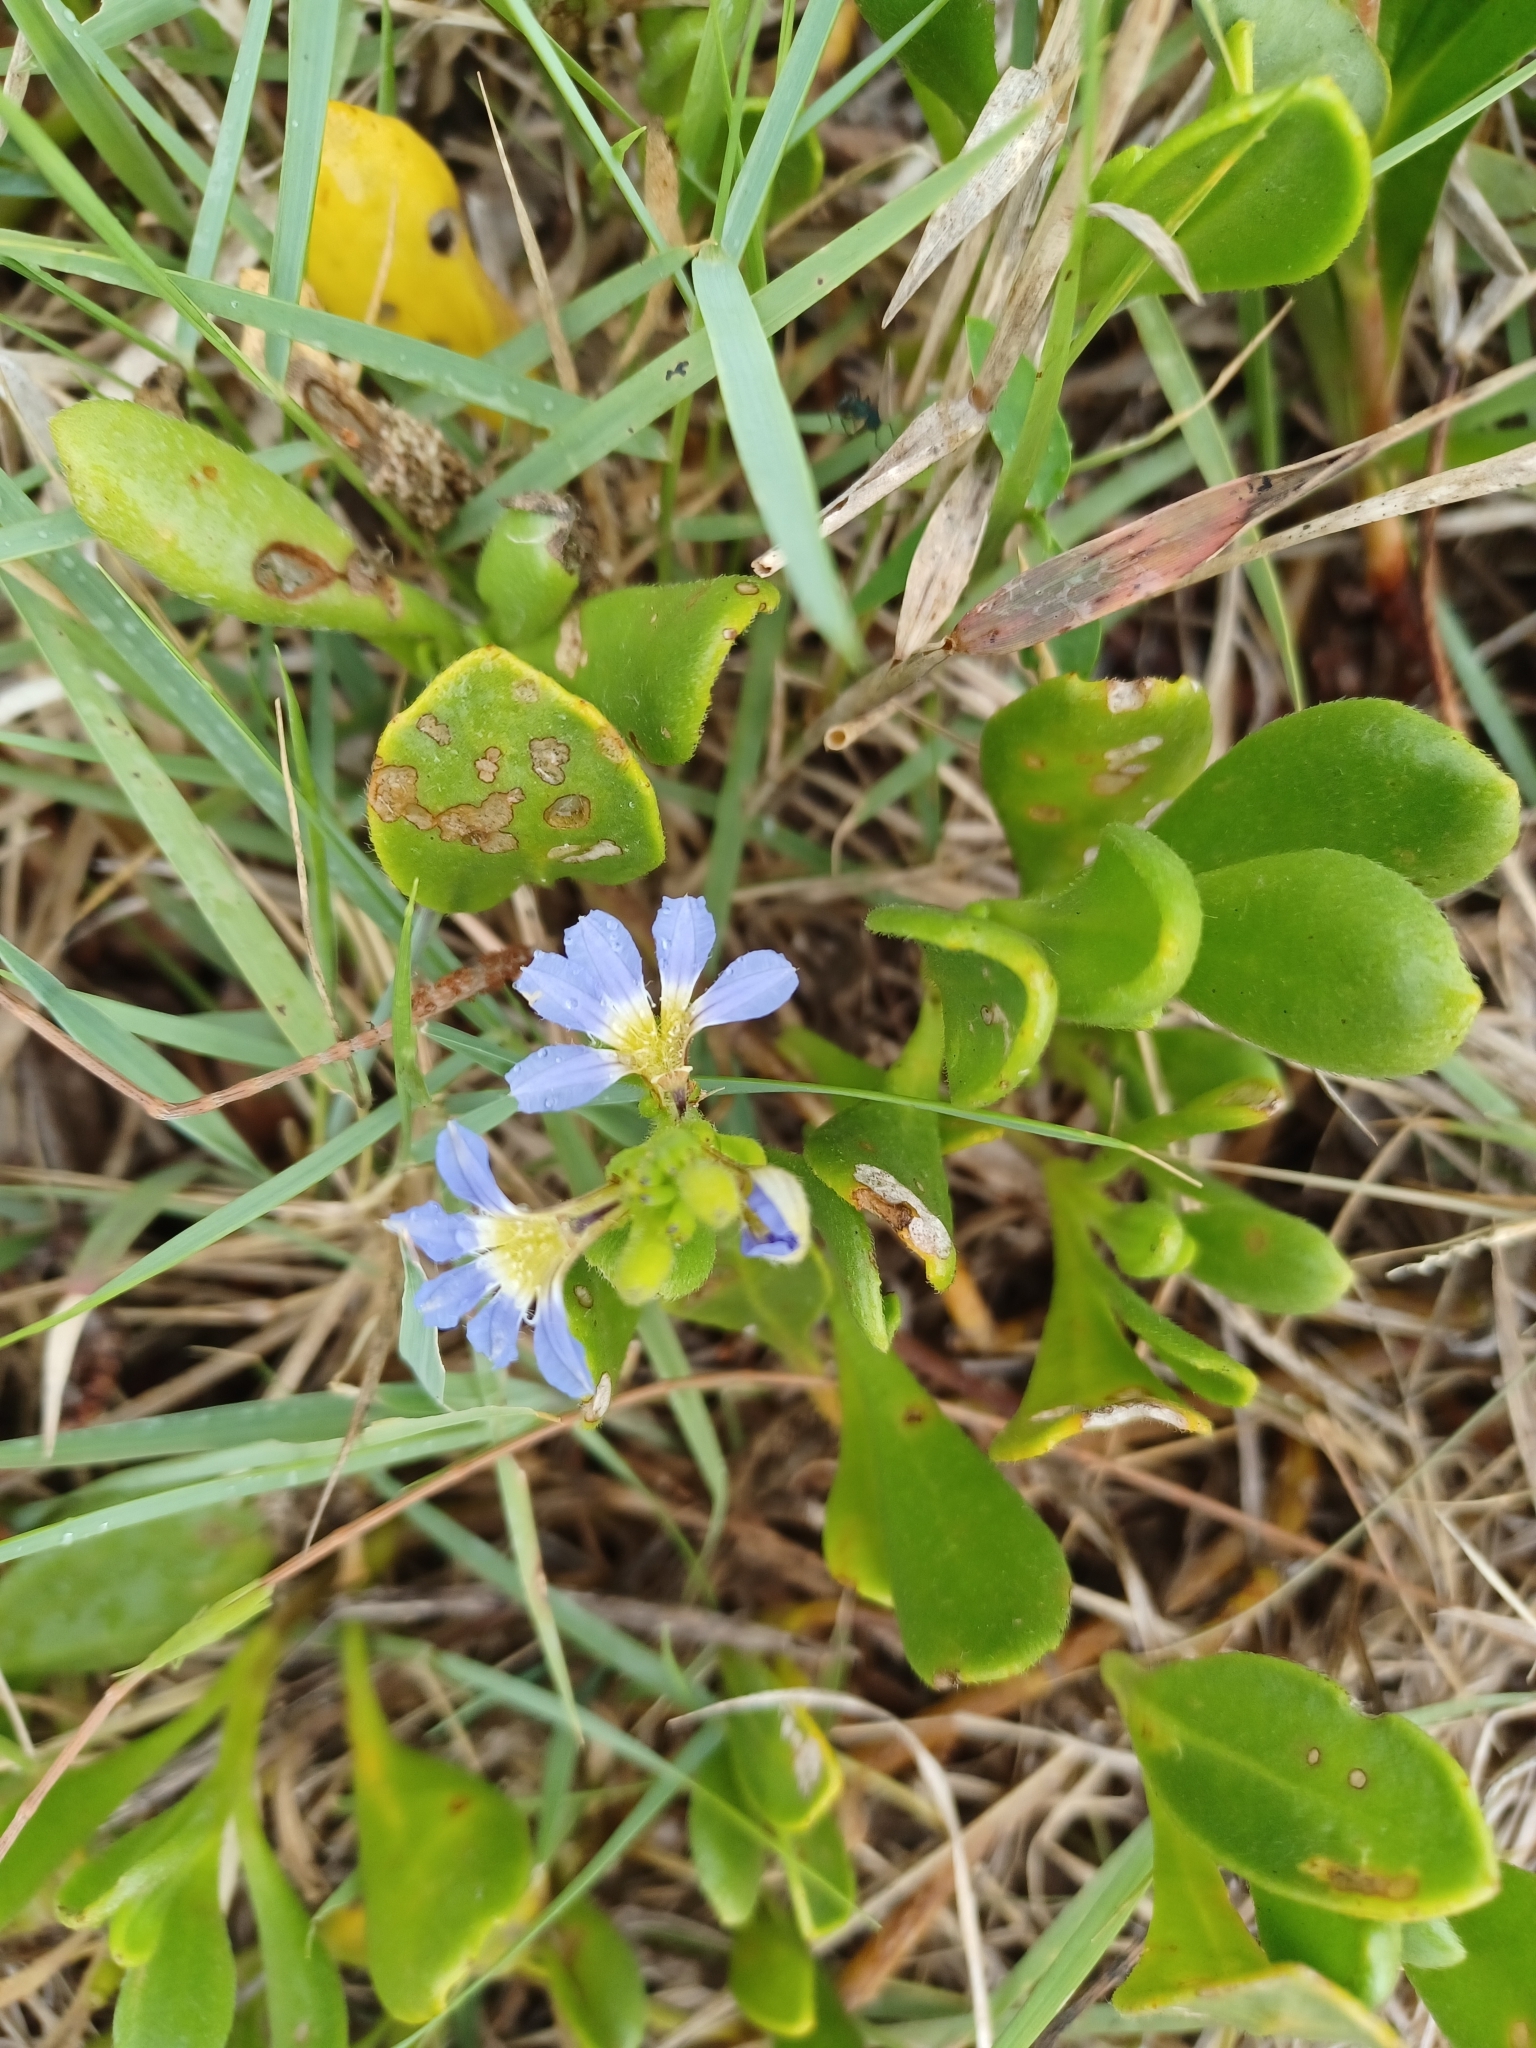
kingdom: Plantae
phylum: Tracheophyta
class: Magnoliopsida
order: Asterales
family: Goodeniaceae
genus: Scaevola
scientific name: Scaevola calendulacea
